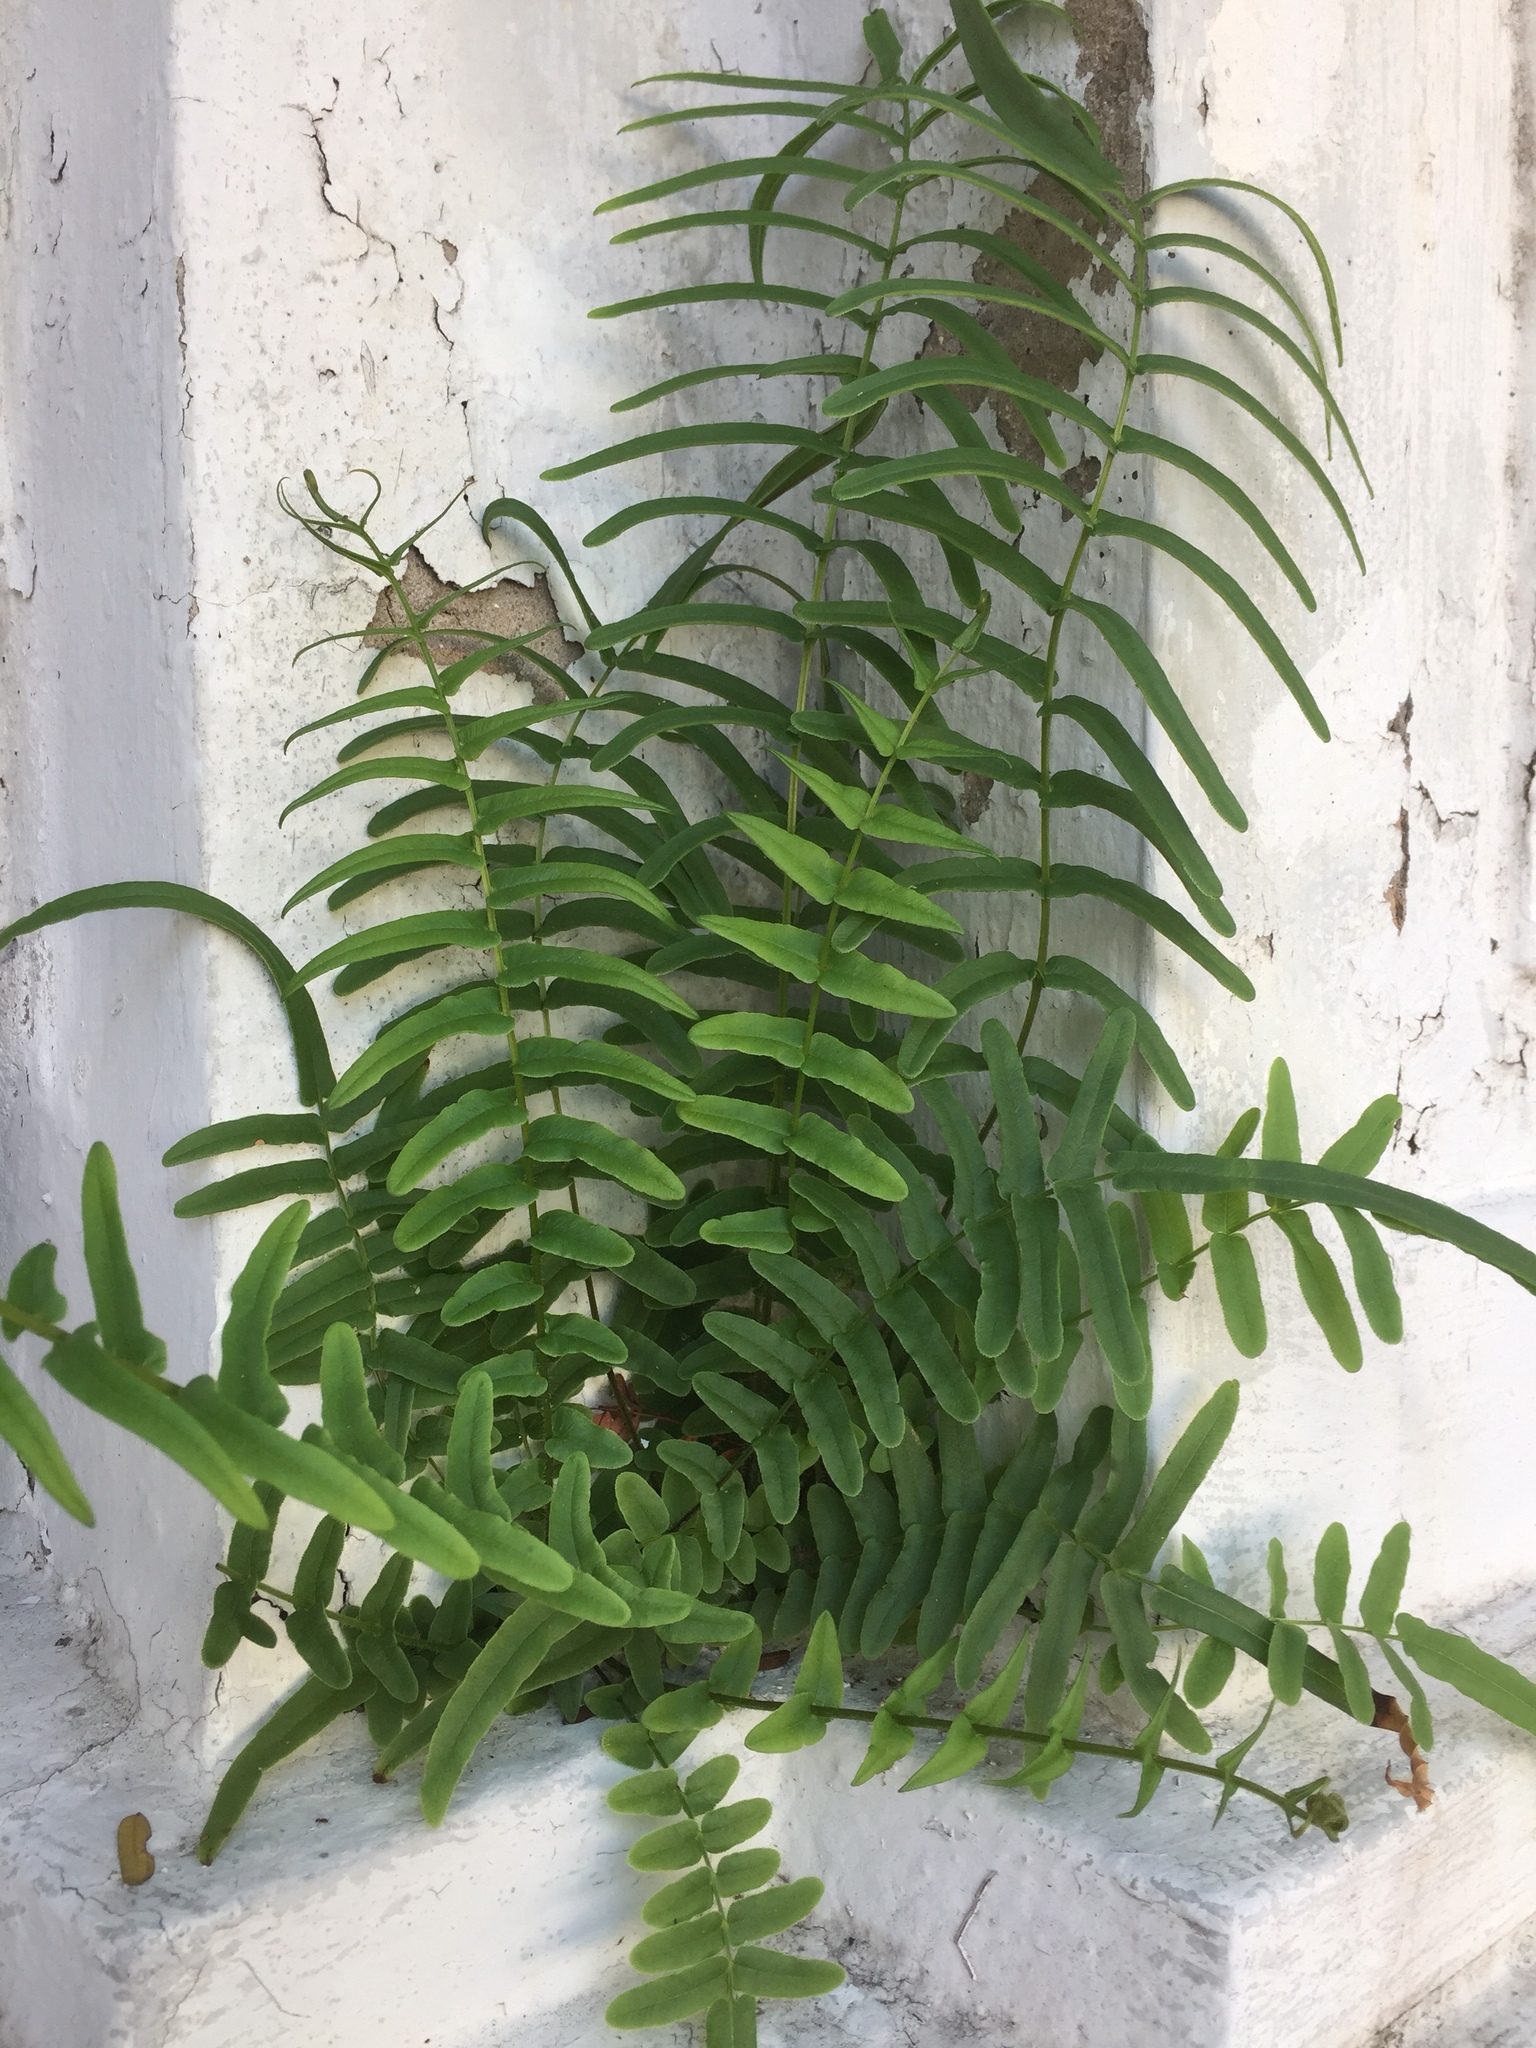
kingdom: Plantae
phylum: Tracheophyta
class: Polypodiopsida
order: Polypodiales
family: Pteridaceae
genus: Pteris
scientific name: Pteris vittata
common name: Ladder brake
